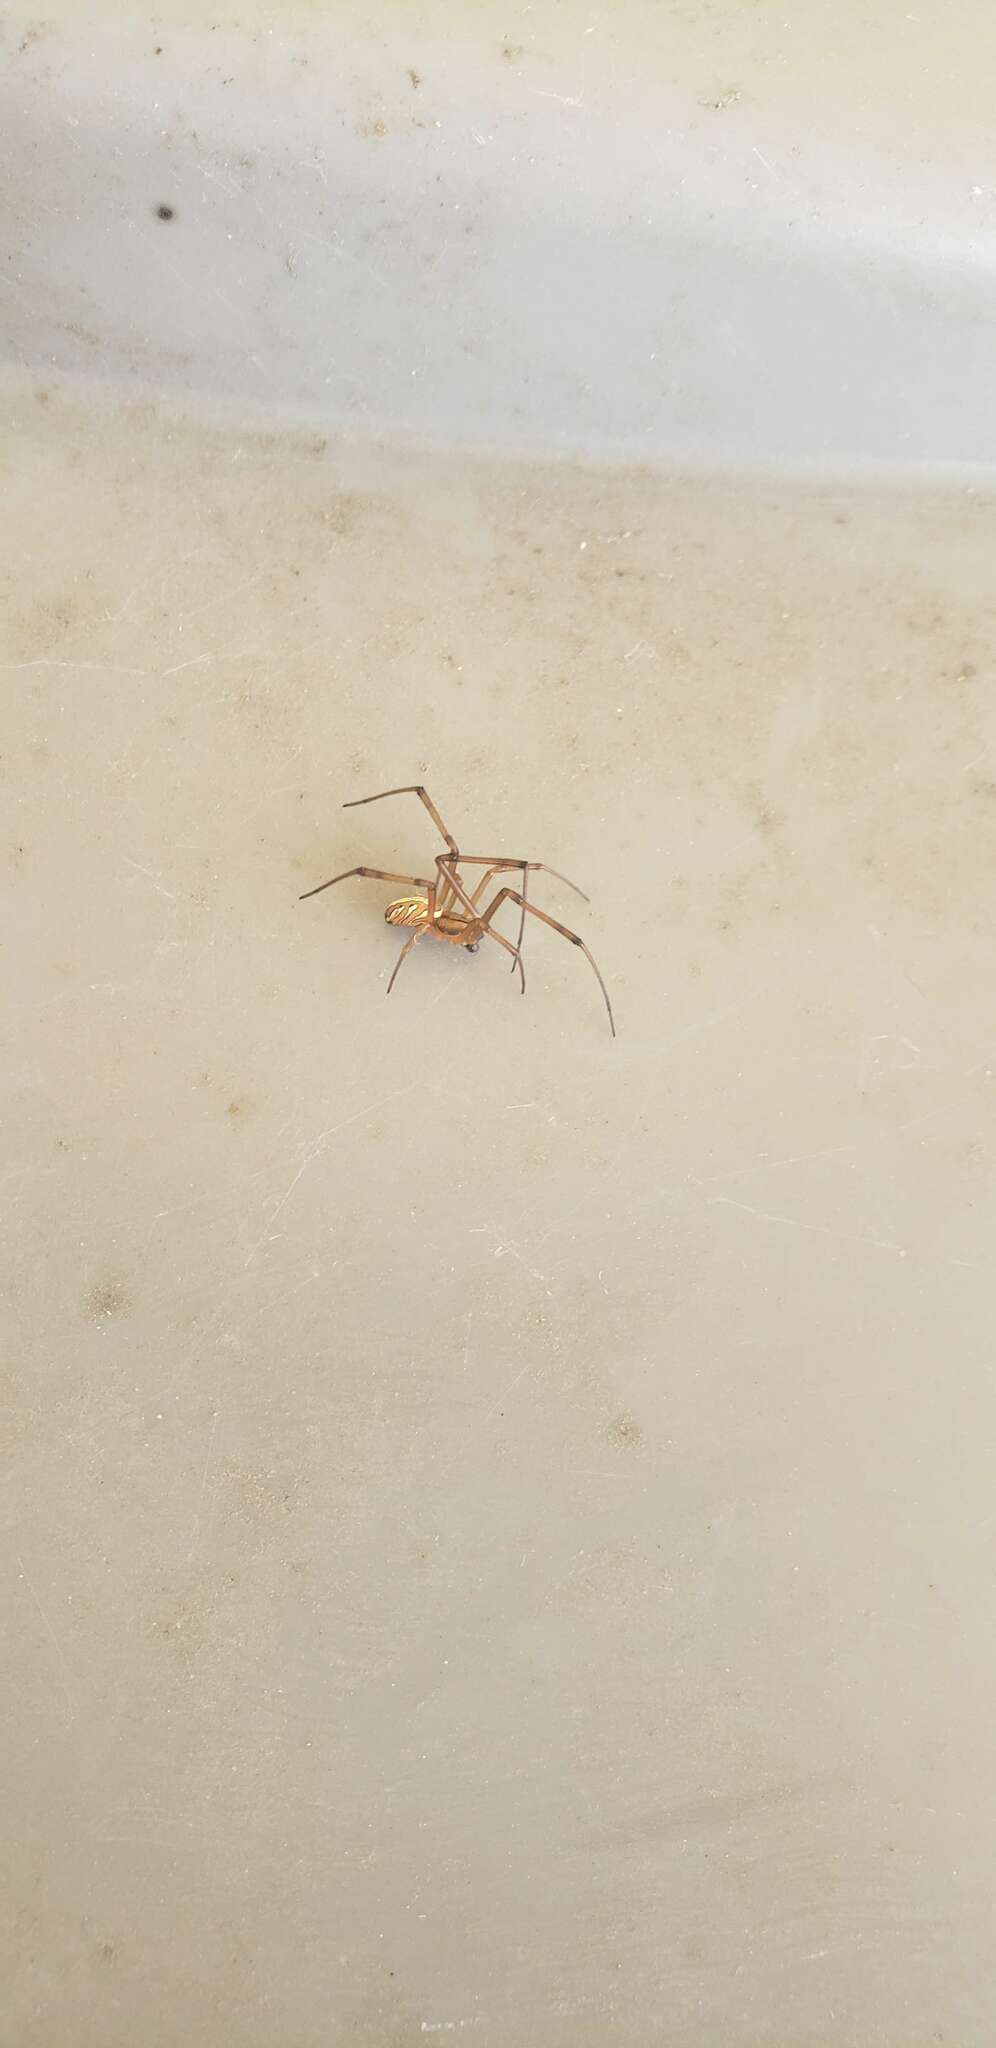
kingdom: Animalia
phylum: Arthropoda
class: Arachnida
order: Araneae
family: Theridiidae
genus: Latrodectus
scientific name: Latrodectus hesperus
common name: Western black widow
